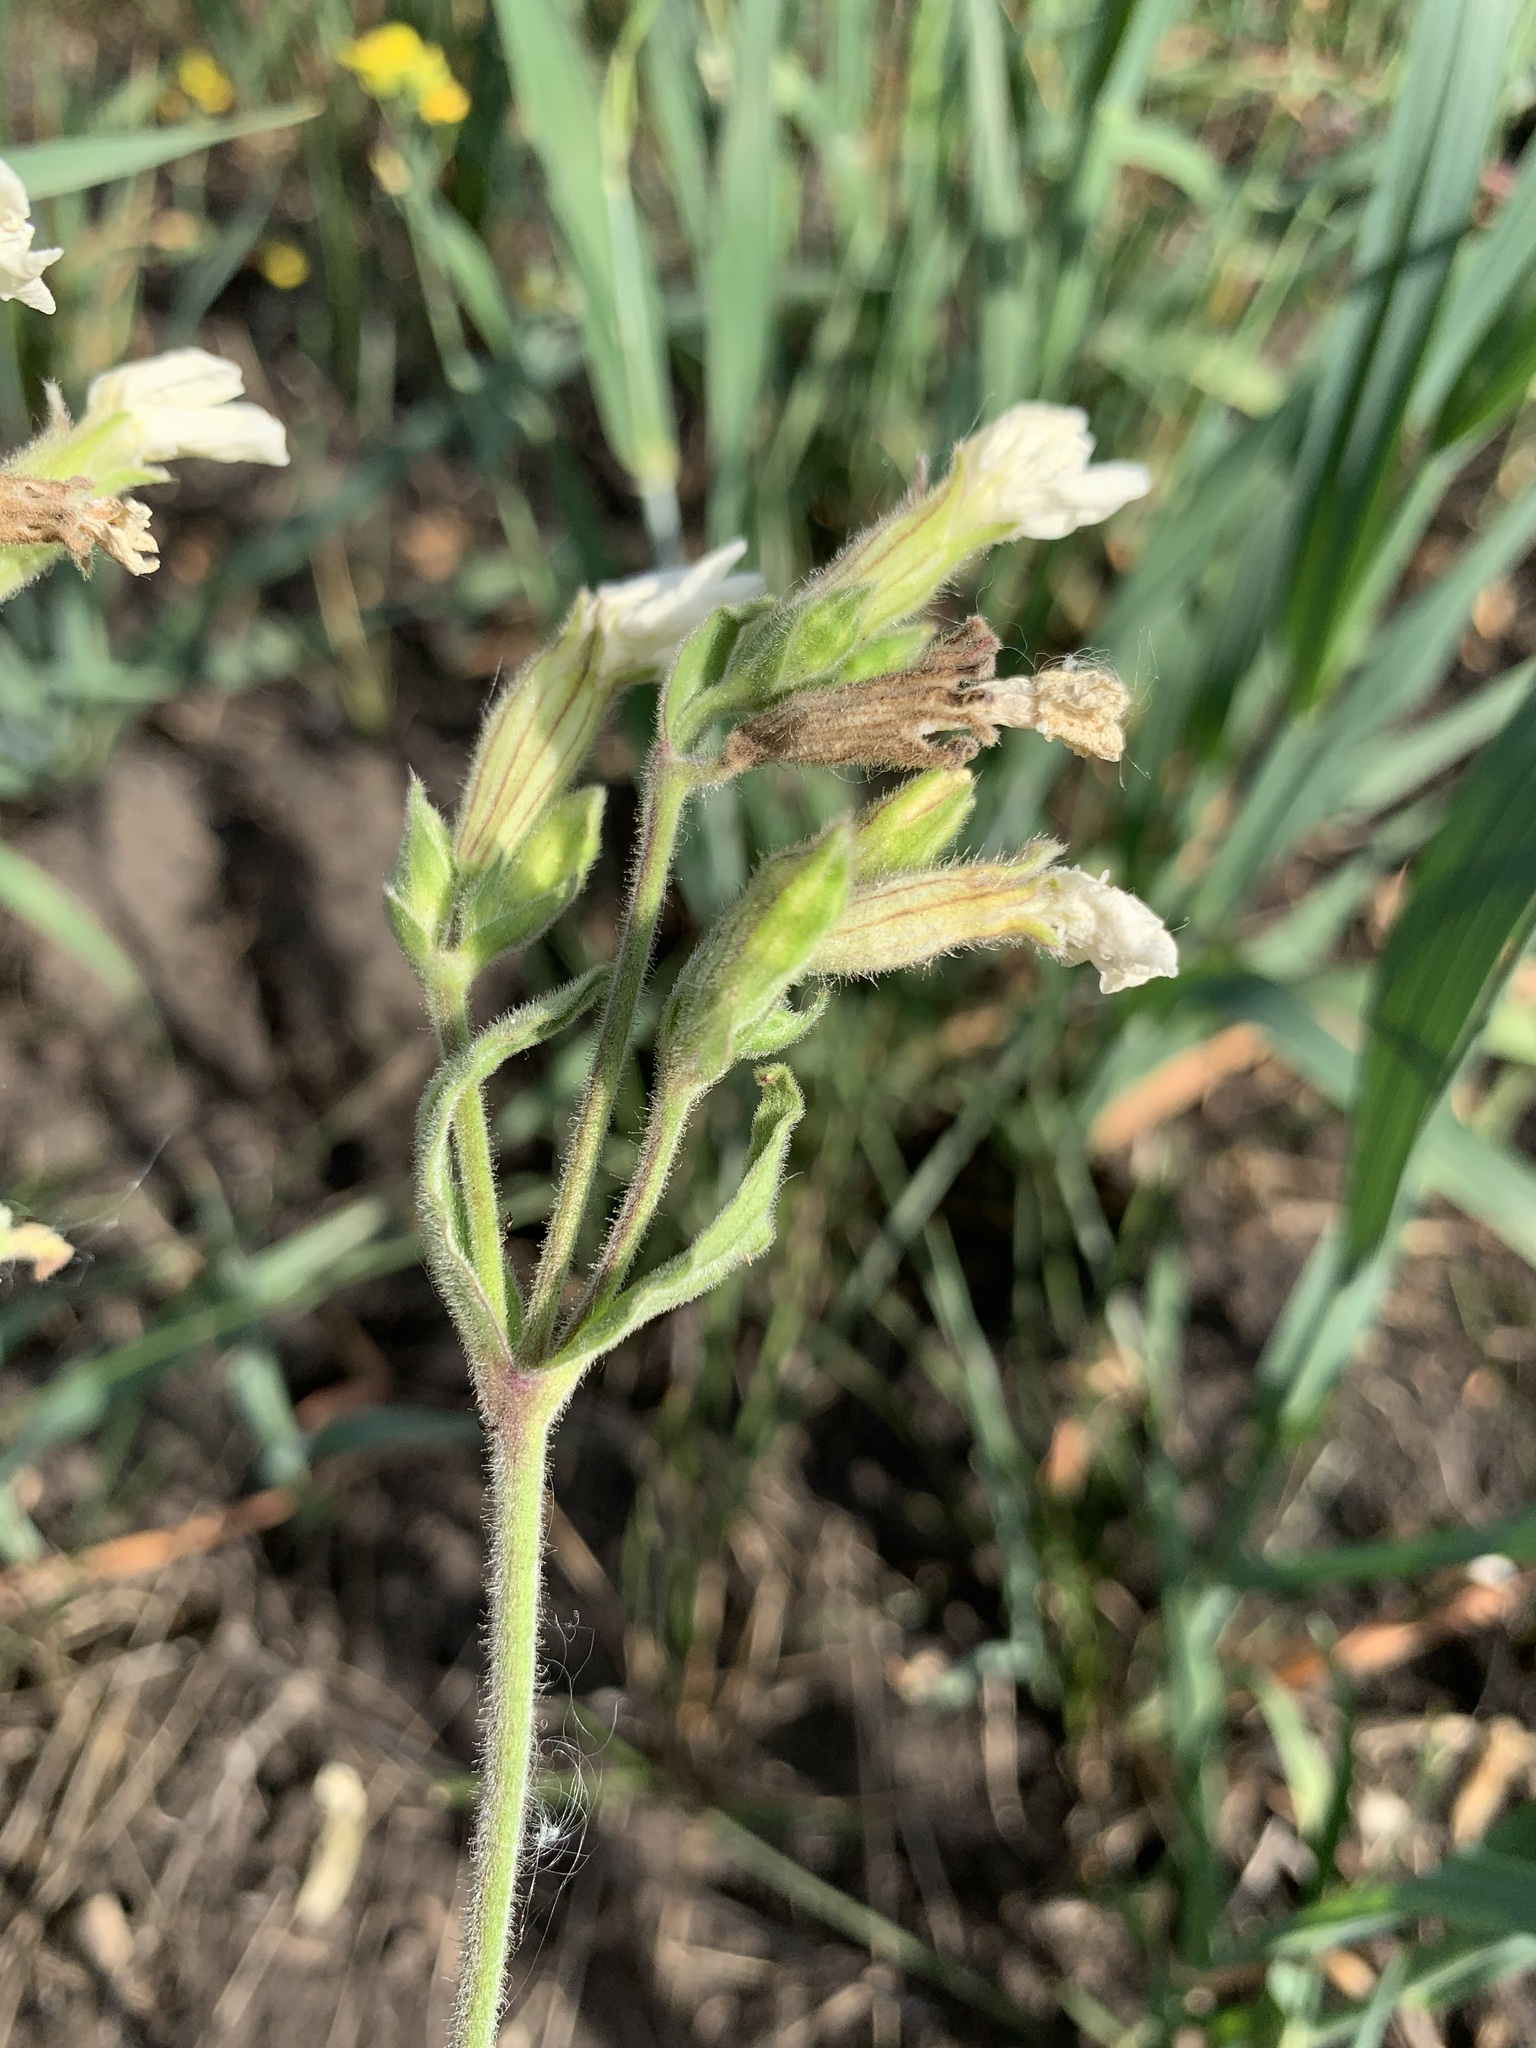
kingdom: Plantae
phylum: Tracheophyta
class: Magnoliopsida
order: Caryophyllales
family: Caryophyllaceae
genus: Silene
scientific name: Silene latifolia
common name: White campion
